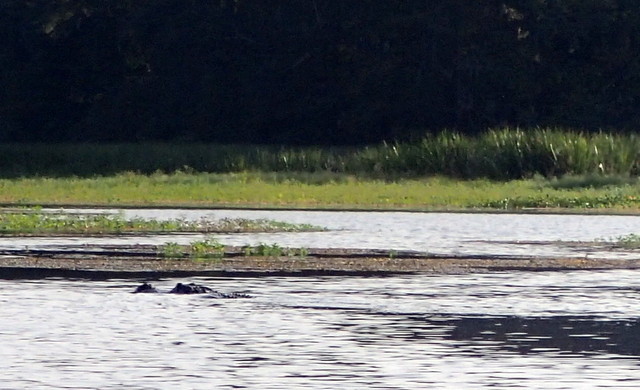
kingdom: Animalia
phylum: Chordata
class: Crocodylia
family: Alligatoridae
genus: Alligator
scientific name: Alligator mississippiensis
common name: American alligator
